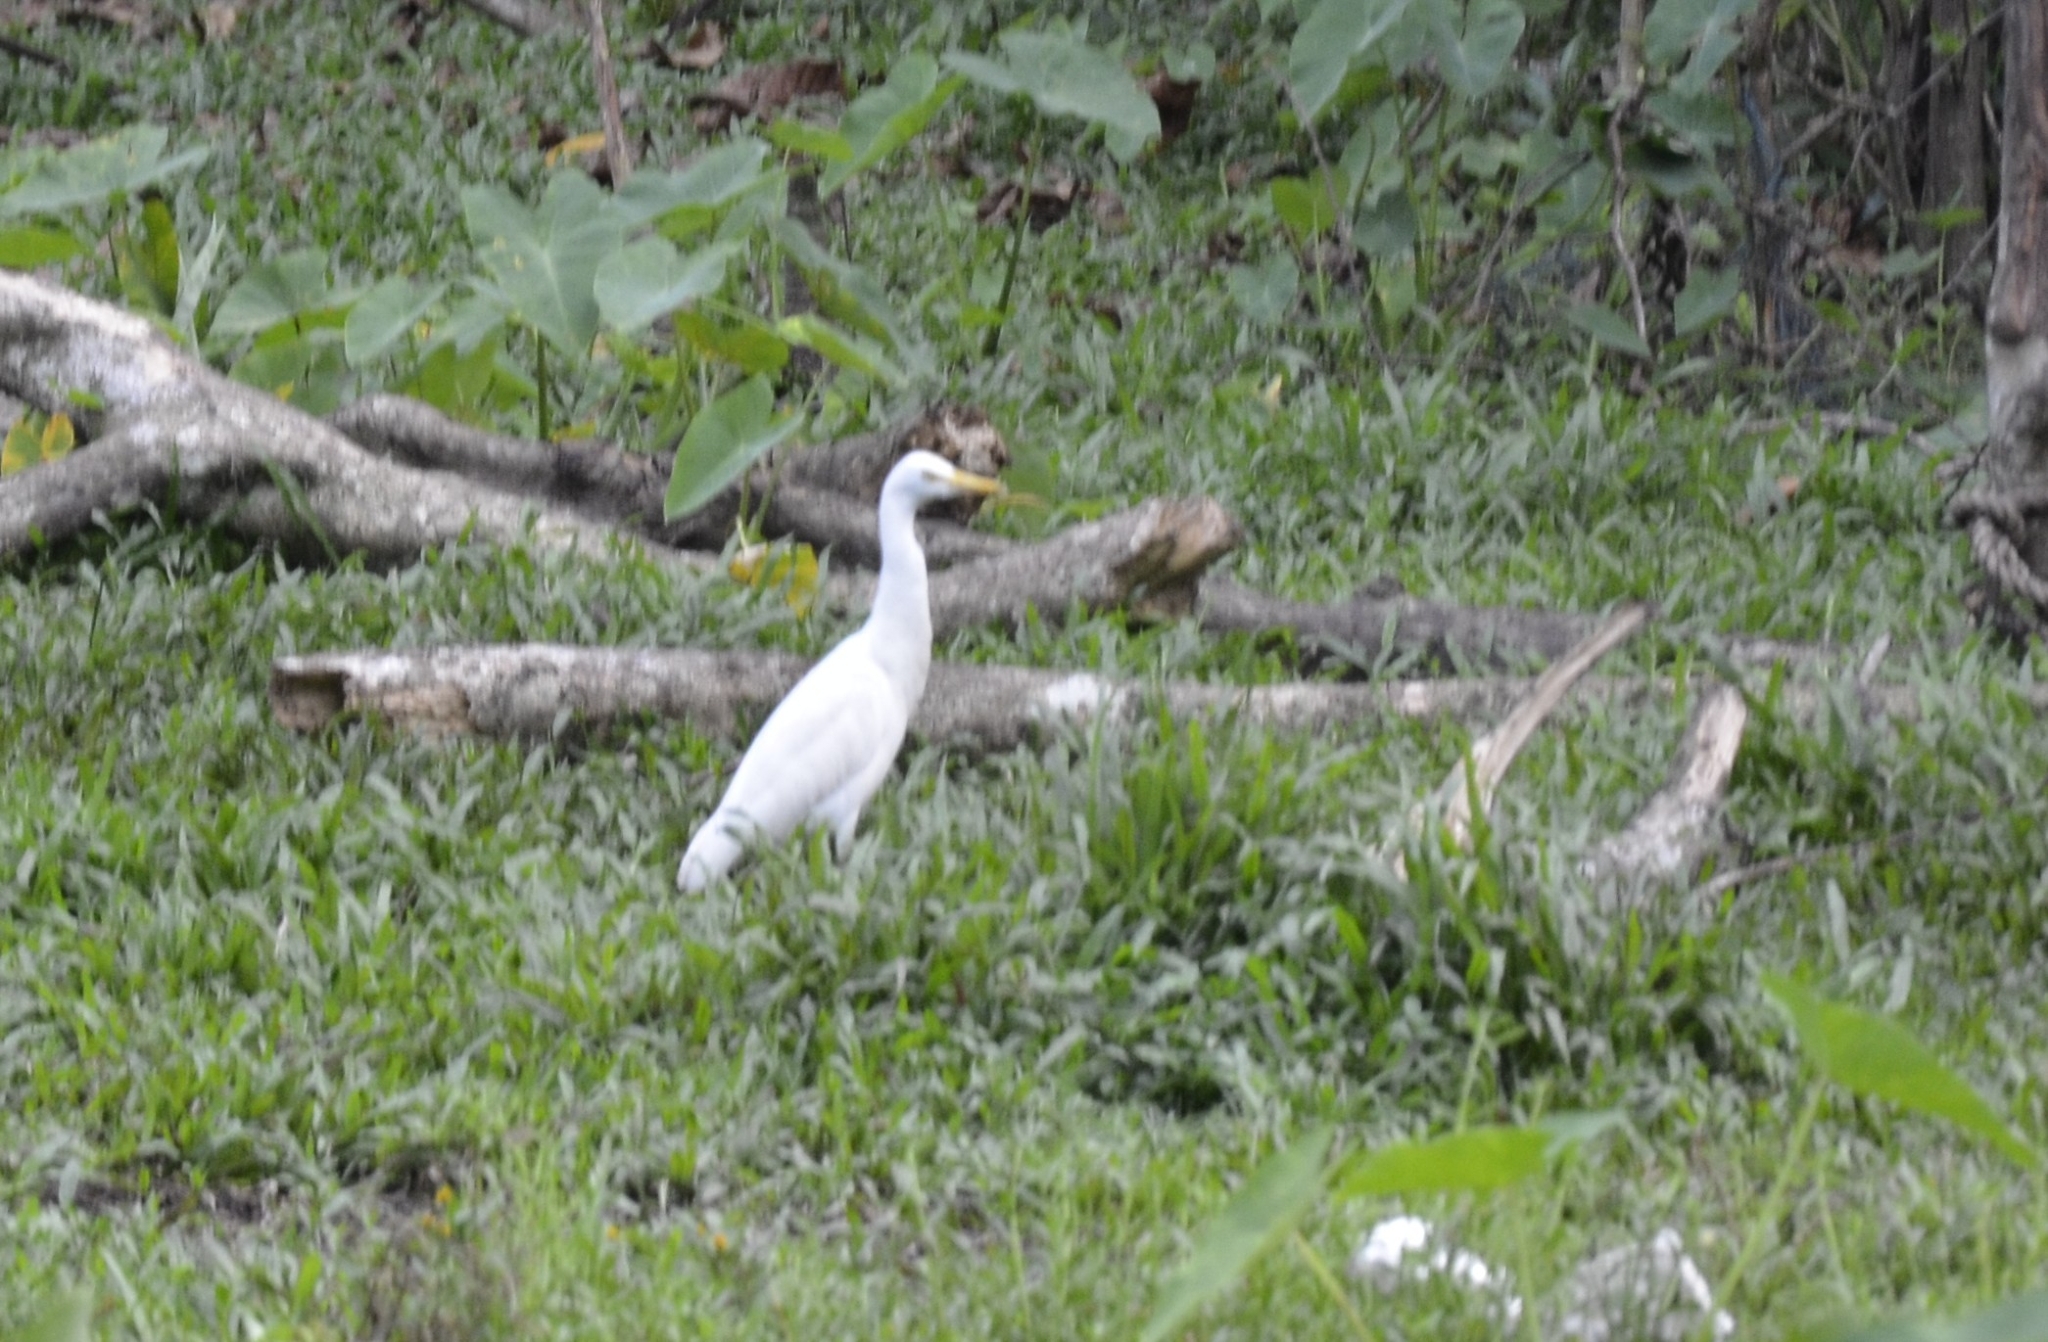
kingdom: Animalia
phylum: Chordata
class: Aves
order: Pelecaniformes
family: Ardeidae
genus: Bubulcus
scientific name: Bubulcus coromandus
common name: Eastern cattle egret
